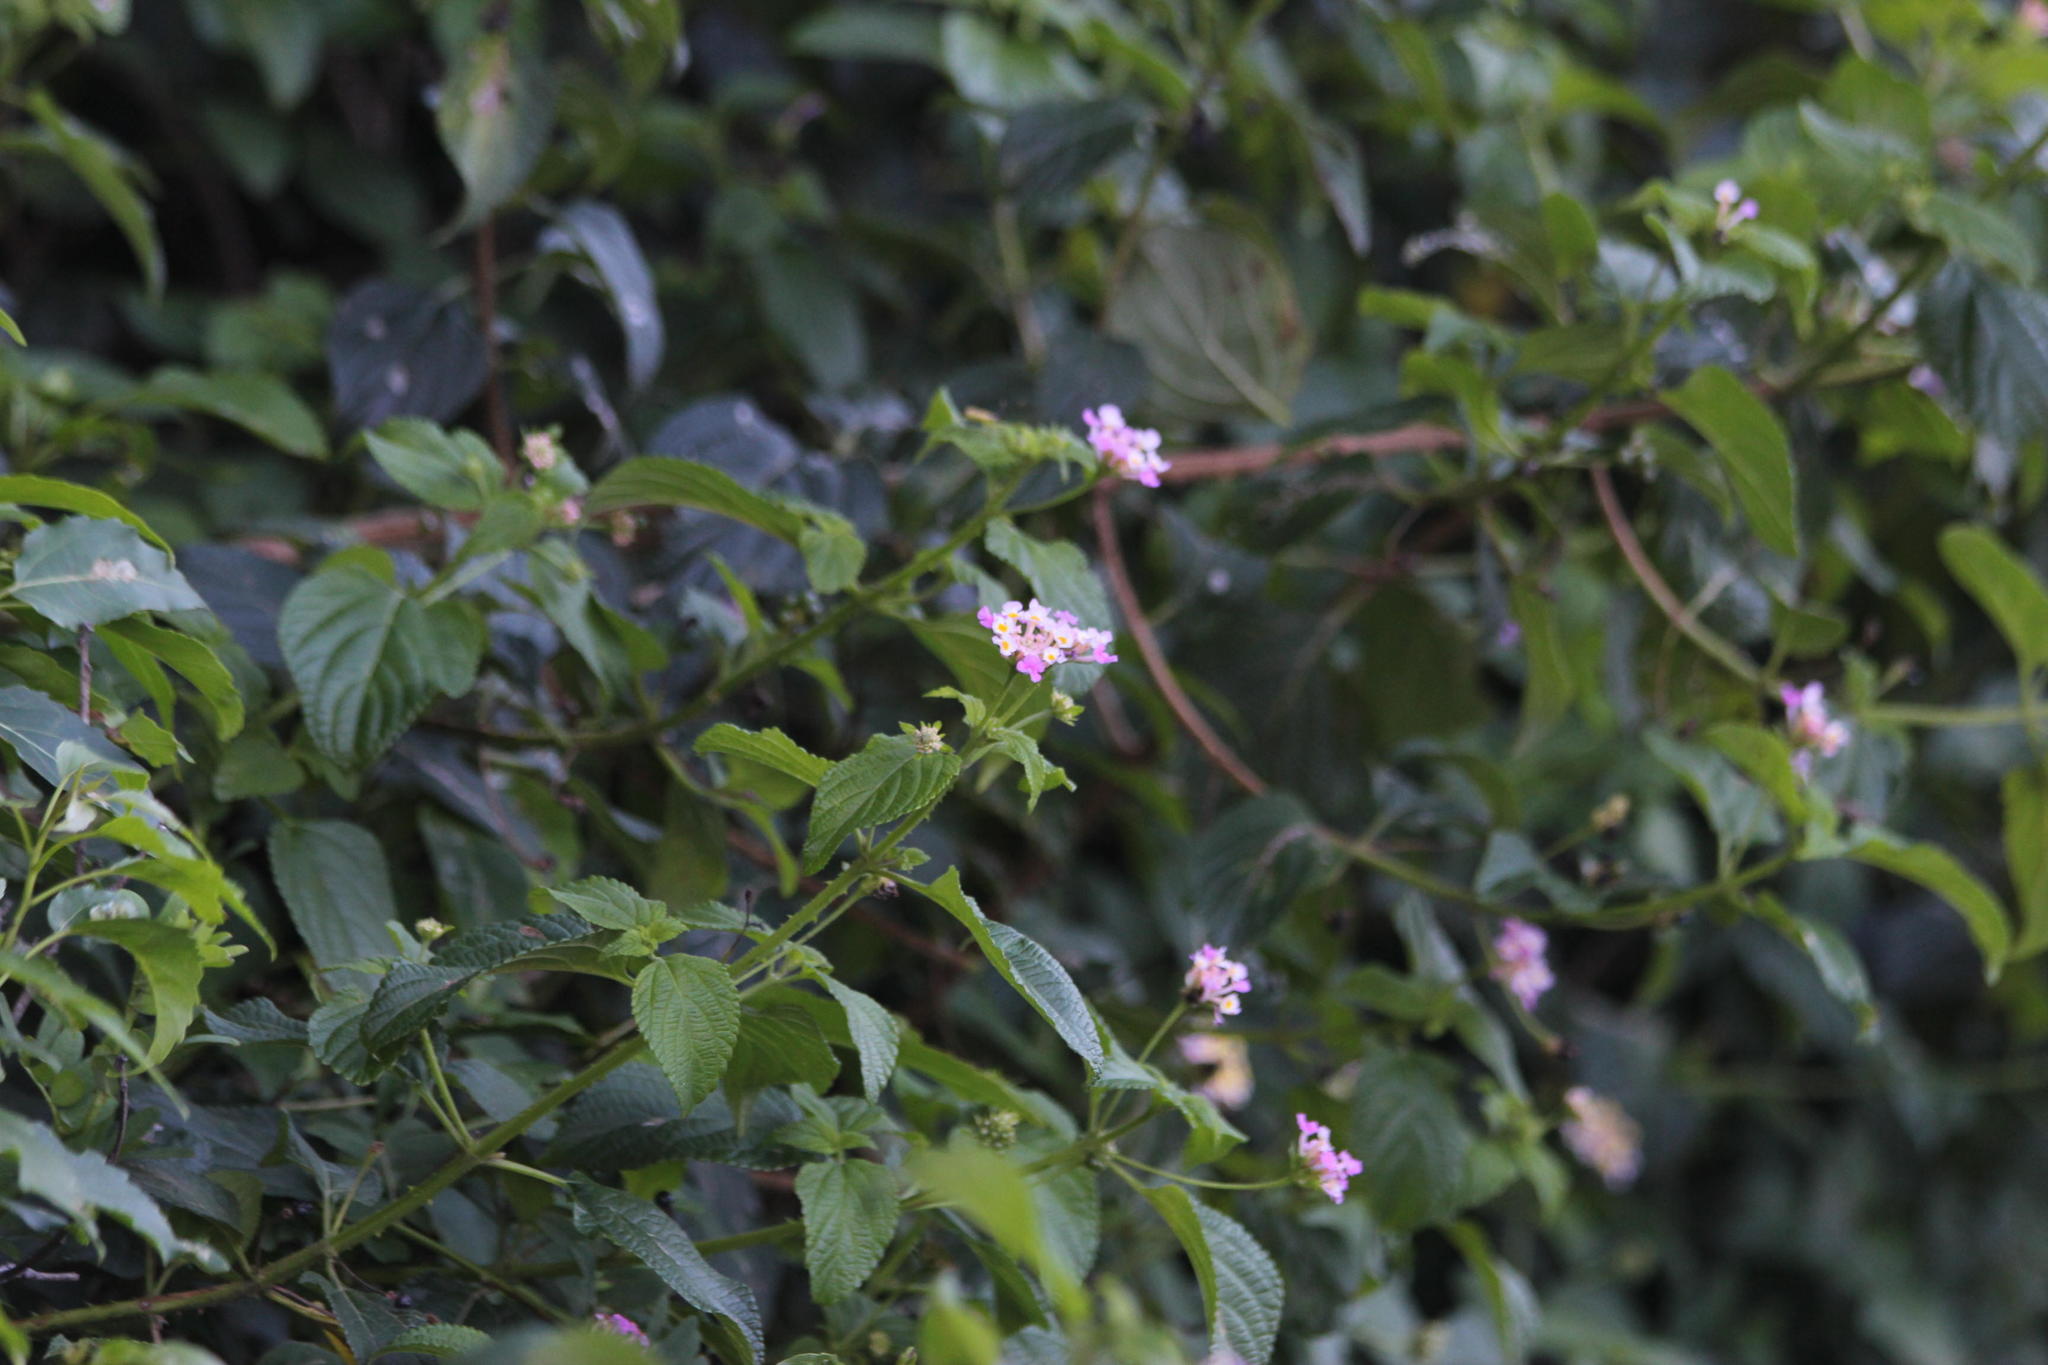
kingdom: Plantae
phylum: Tracheophyta
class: Magnoliopsida
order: Lamiales
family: Verbenaceae
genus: Lantana
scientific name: Lantana camara
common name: Lantana
